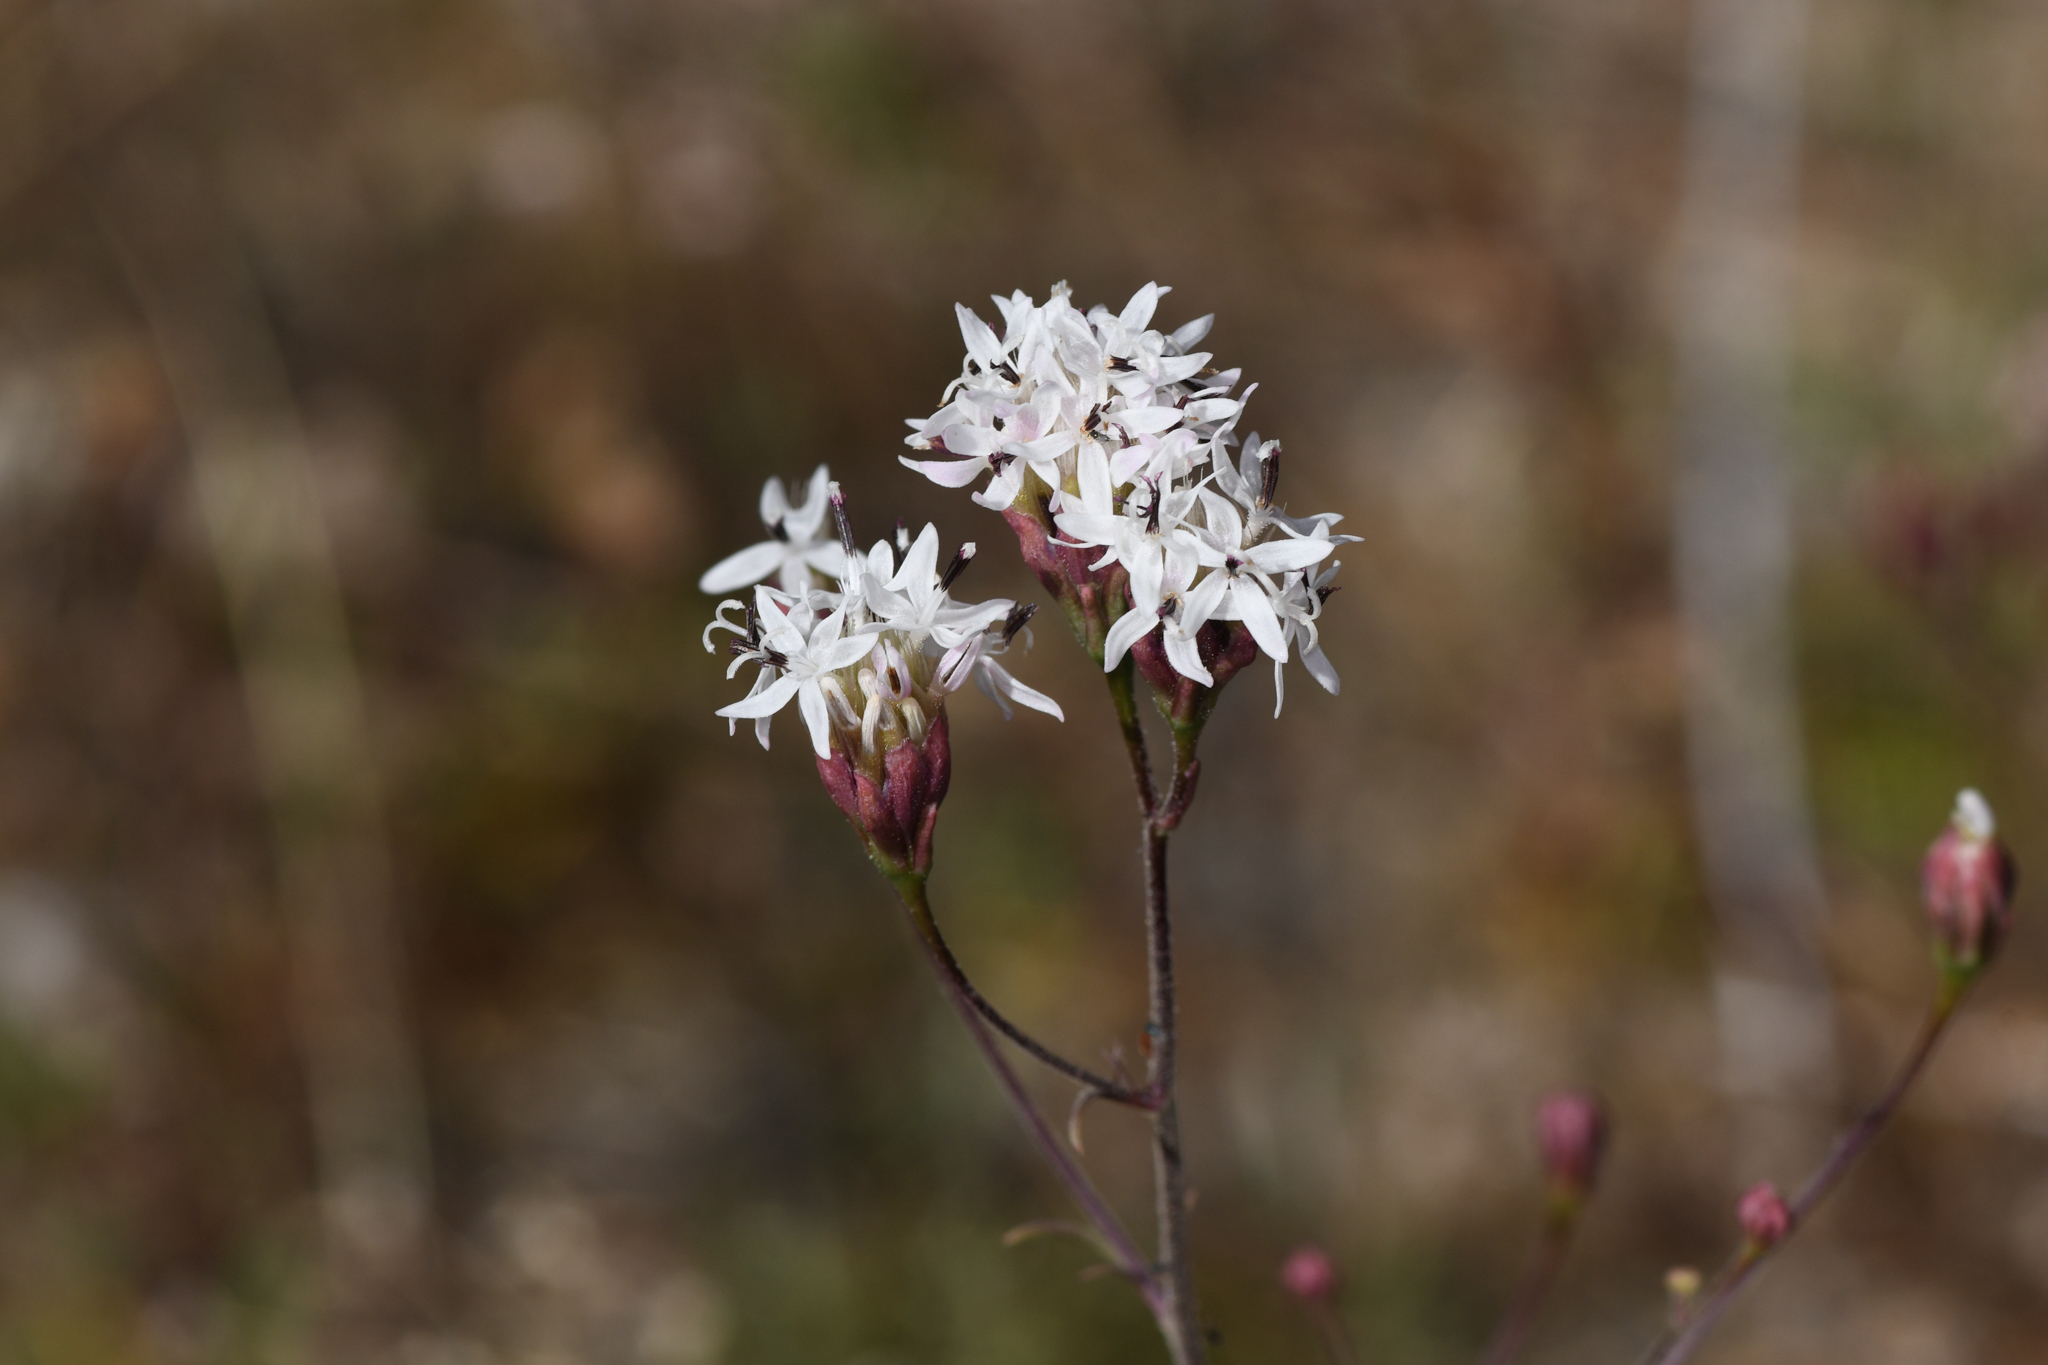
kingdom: Plantae
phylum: Tracheophyta
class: Magnoliopsida
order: Asterales
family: Asteraceae
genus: Hymenothrix
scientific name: Hymenothrix wrightii
